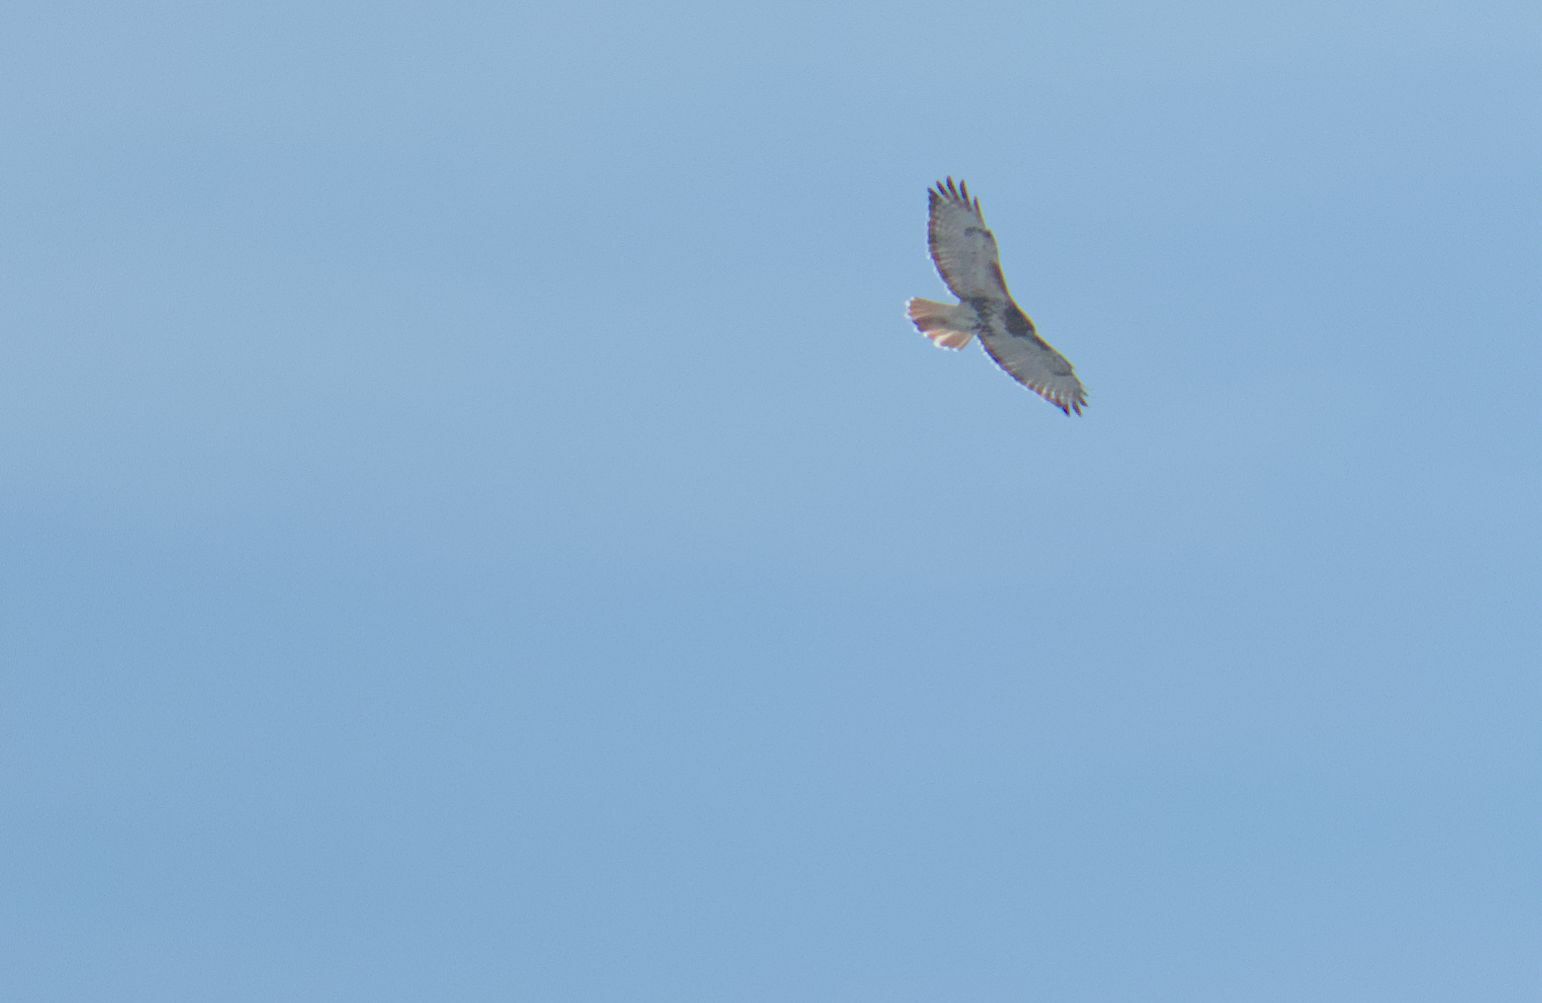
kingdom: Animalia
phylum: Chordata
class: Aves
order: Accipitriformes
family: Accipitridae
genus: Buteo
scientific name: Buteo jamaicensis
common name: Red-tailed hawk
